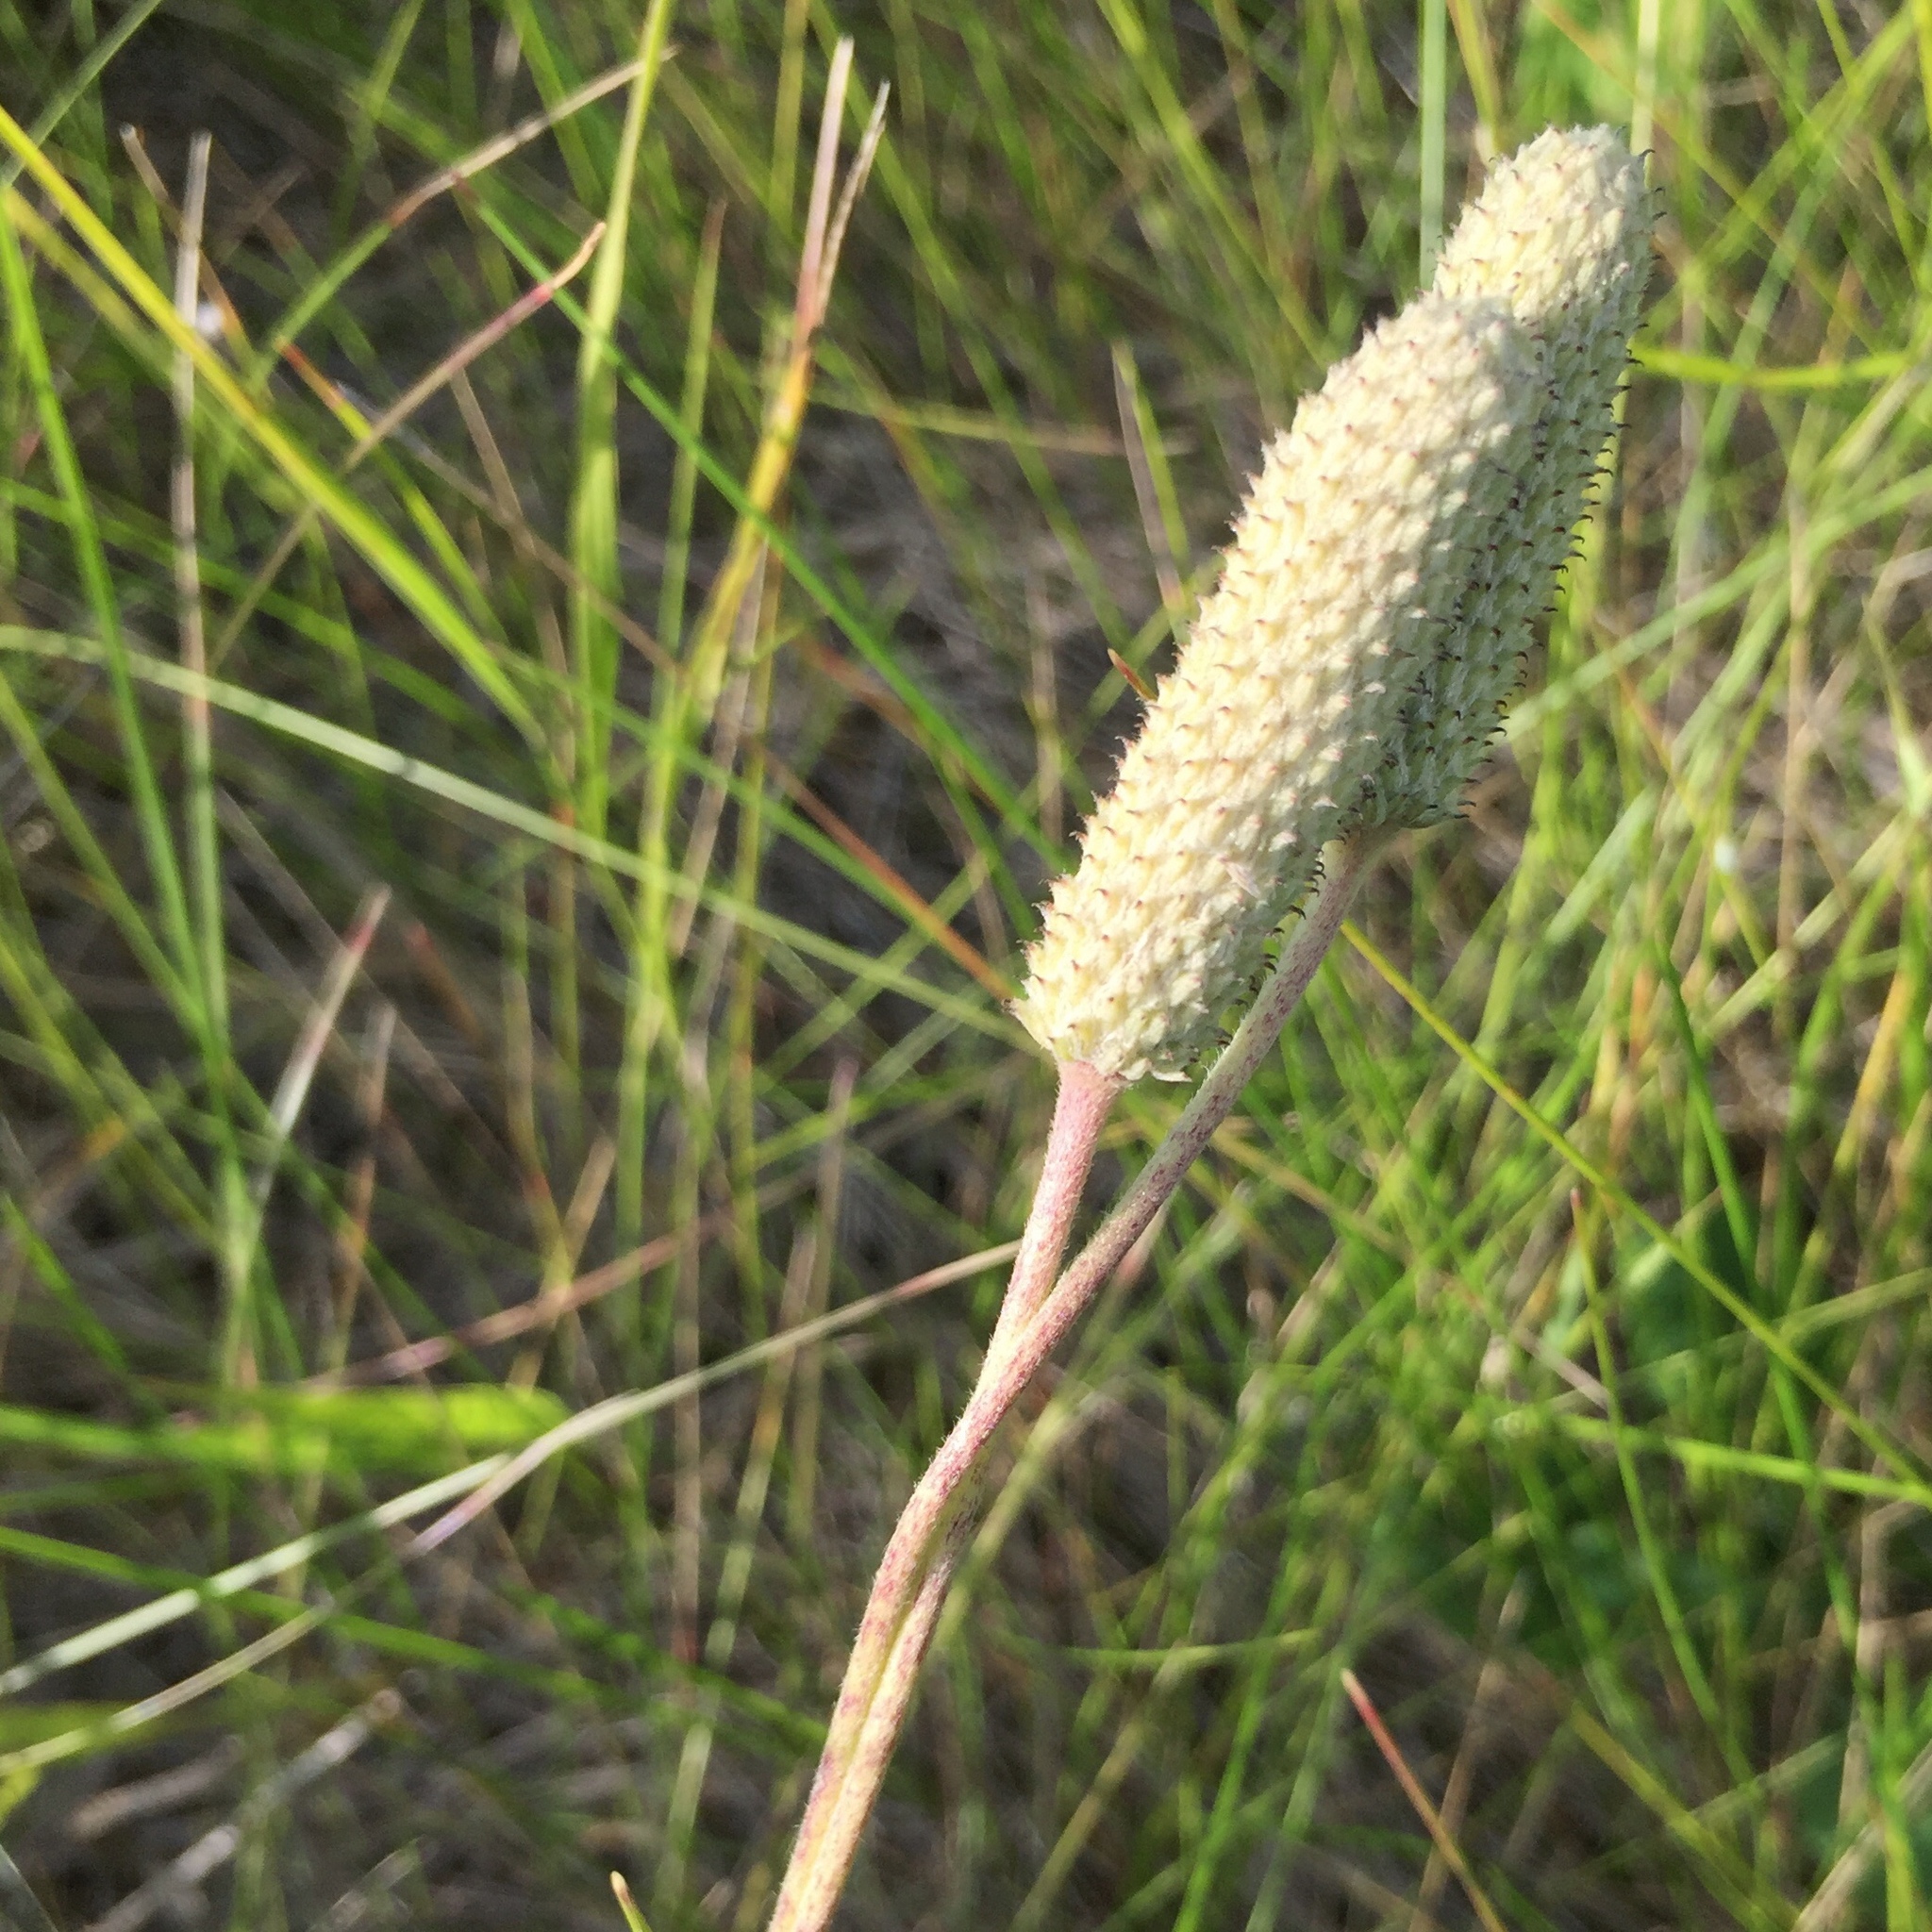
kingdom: Plantae
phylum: Tracheophyta
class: Magnoliopsida
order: Ranunculales
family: Ranunculaceae
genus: Anemone
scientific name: Anemone cylindrica
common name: Candle anemone
